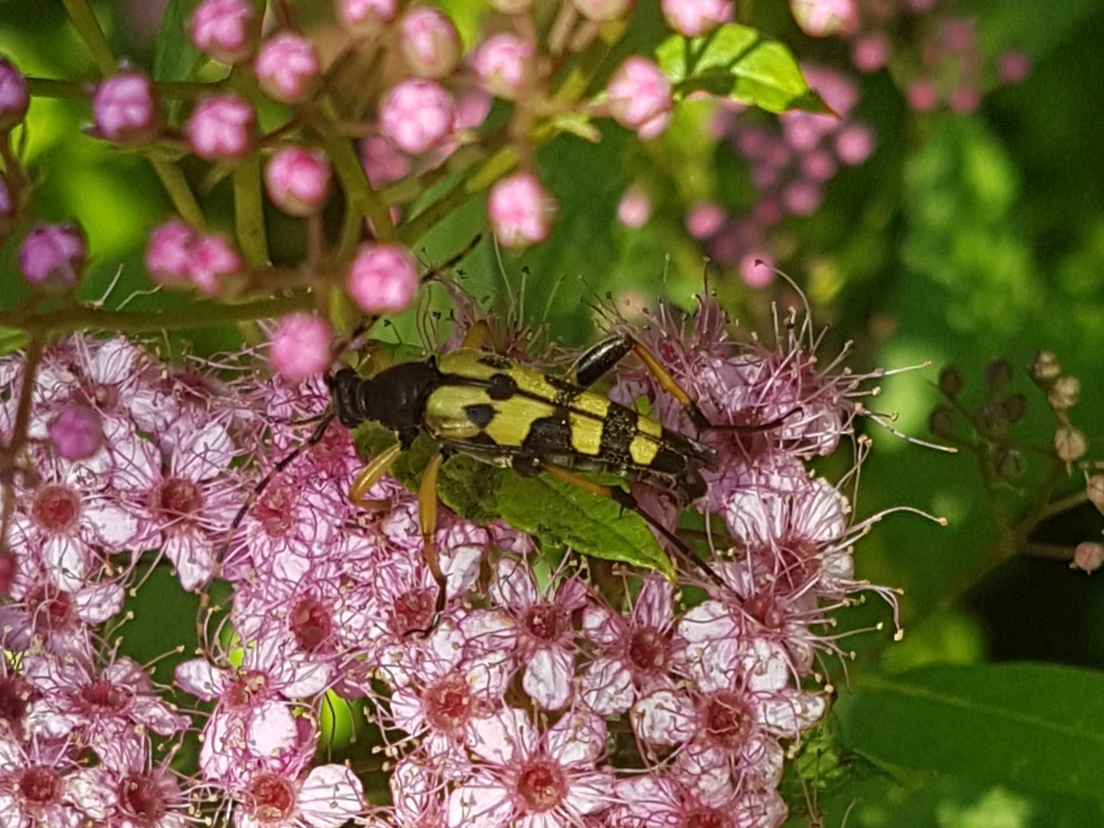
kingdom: Animalia
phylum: Arthropoda
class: Insecta
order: Coleoptera
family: Cerambycidae
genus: Rutpela
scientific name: Rutpela maculata
